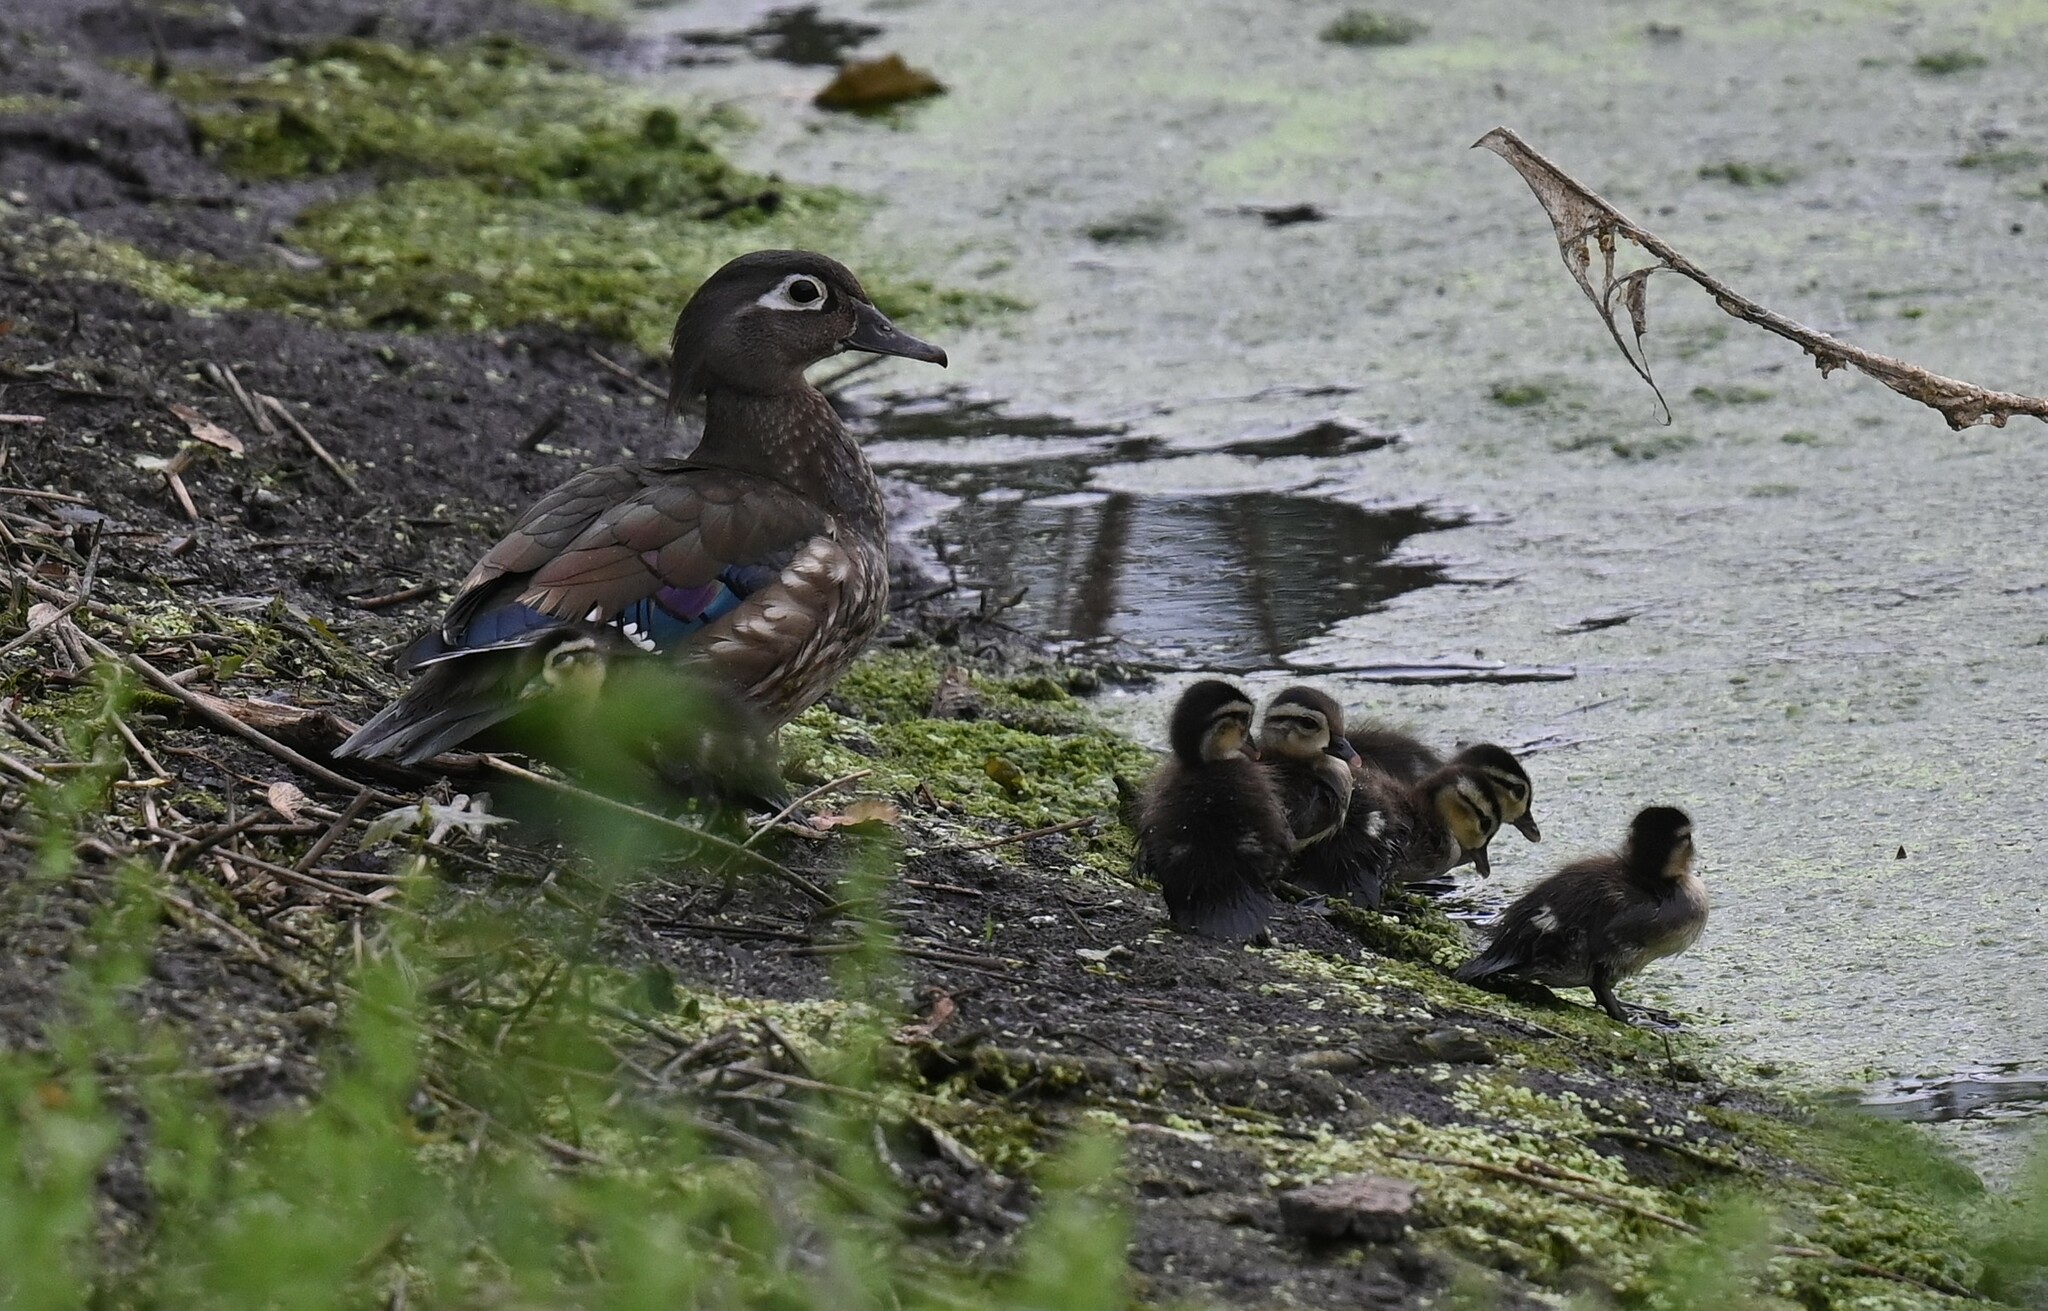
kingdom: Animalia
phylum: Chordata
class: Aves
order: Anseriformes
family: Anatidae
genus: Aix
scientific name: Aix sponsa
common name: Wood duck
